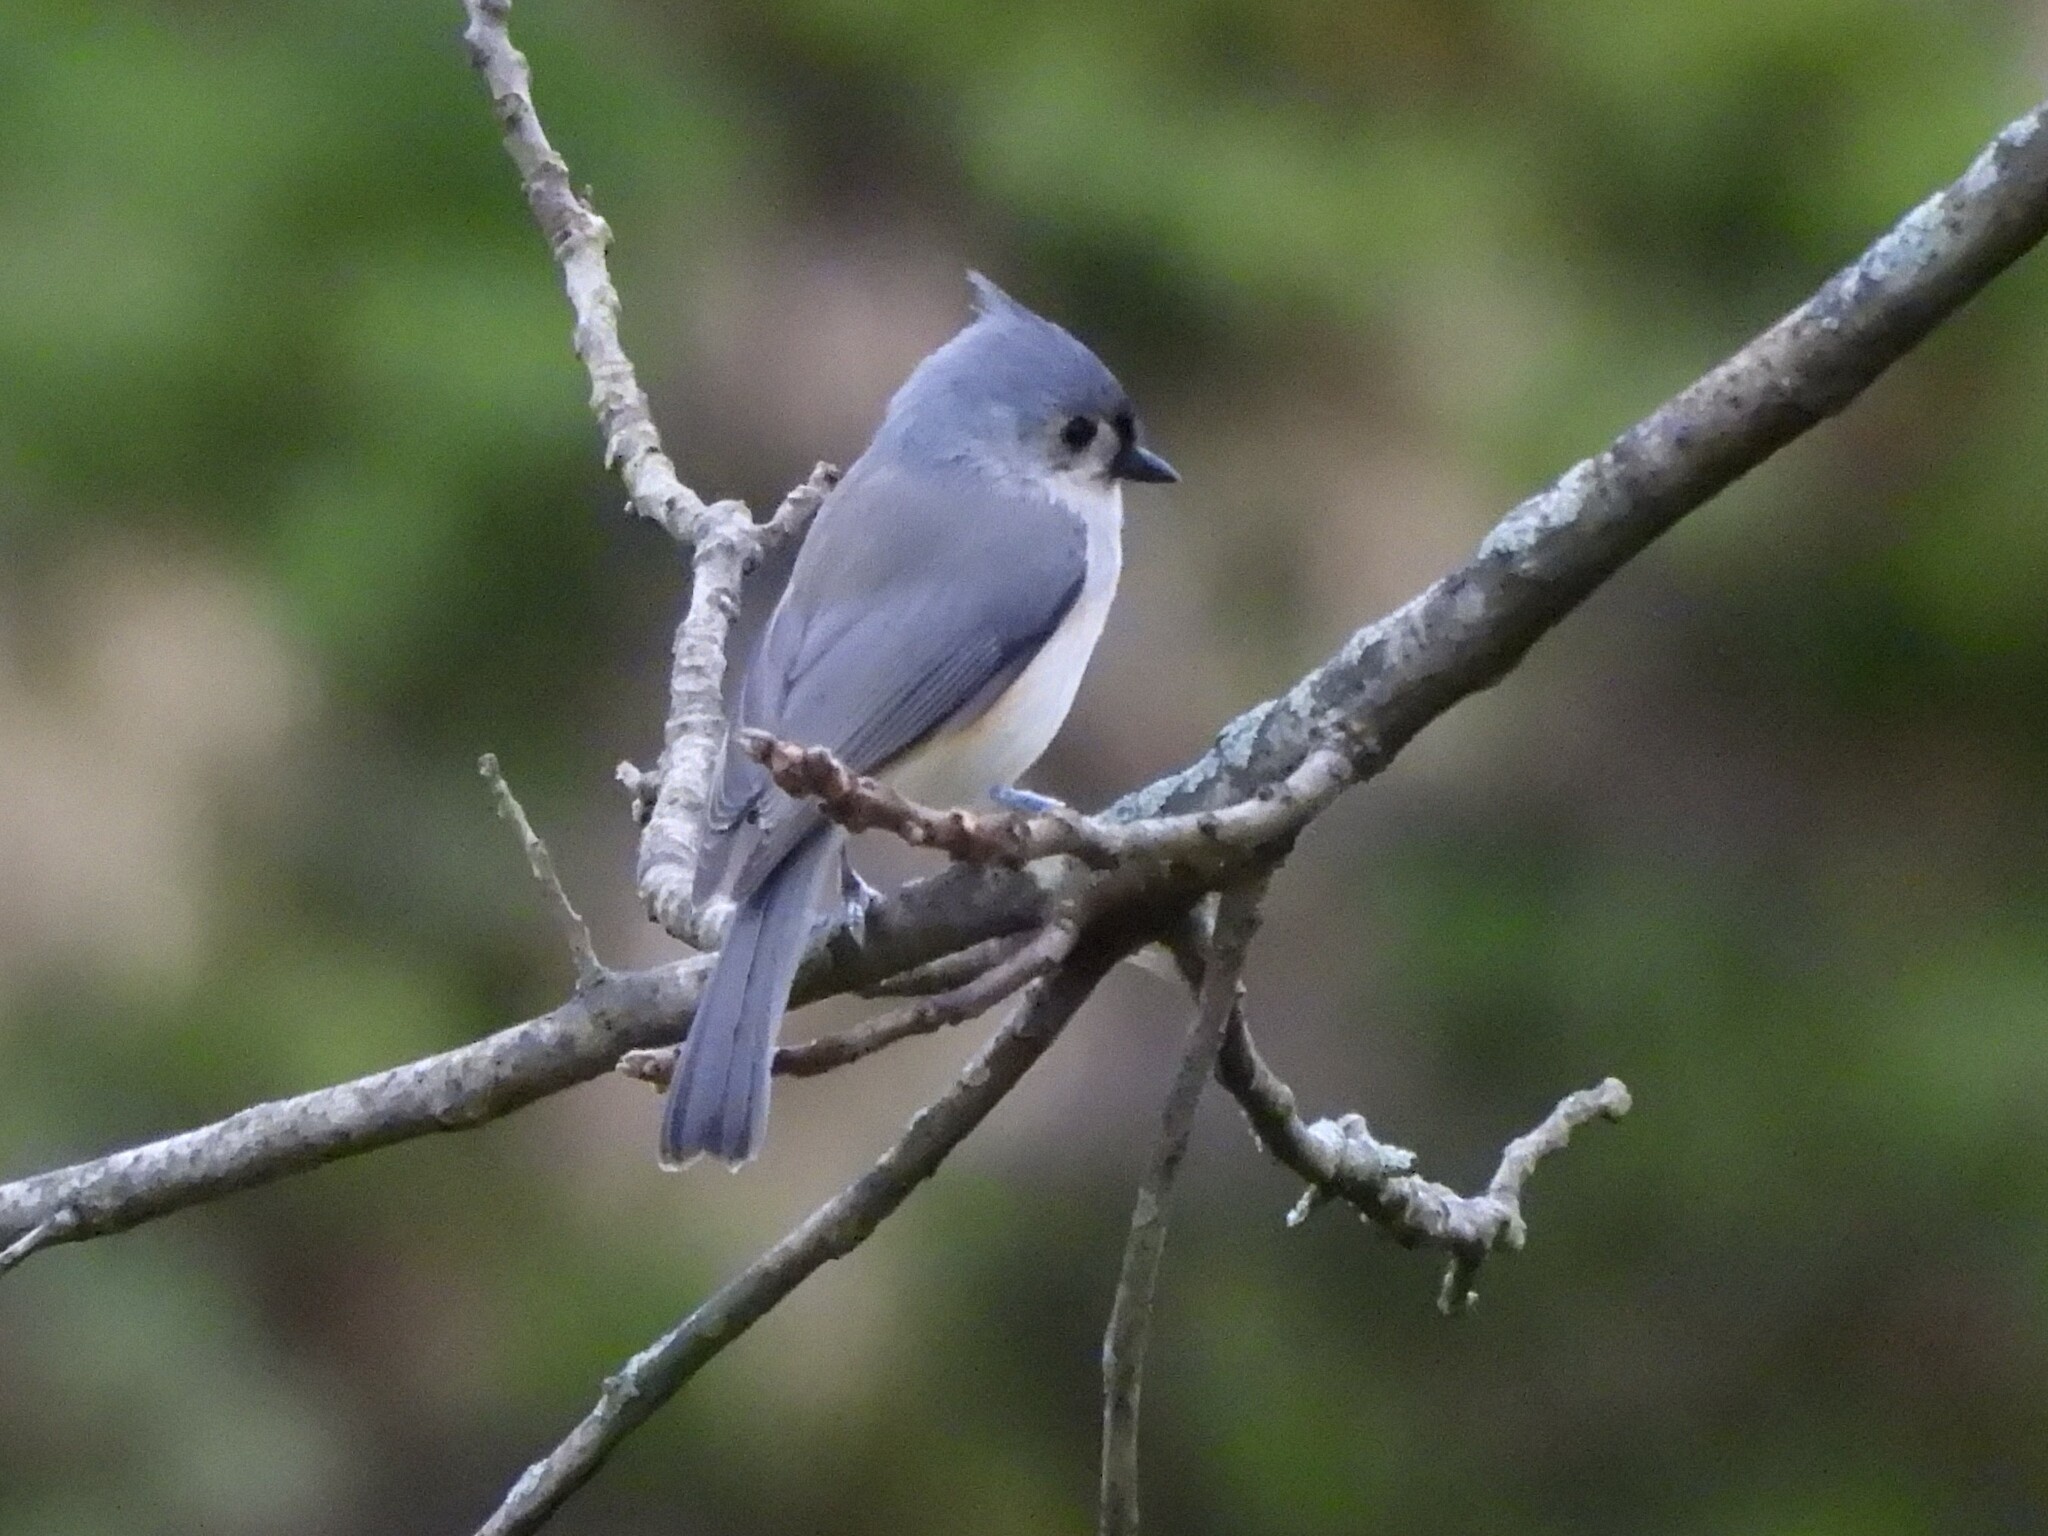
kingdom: Animalia
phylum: Chordata
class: Aves
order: Passeriformes
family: Paridae
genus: Baeolophus
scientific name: Baeolophus bicolor
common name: Tufted titmouse
